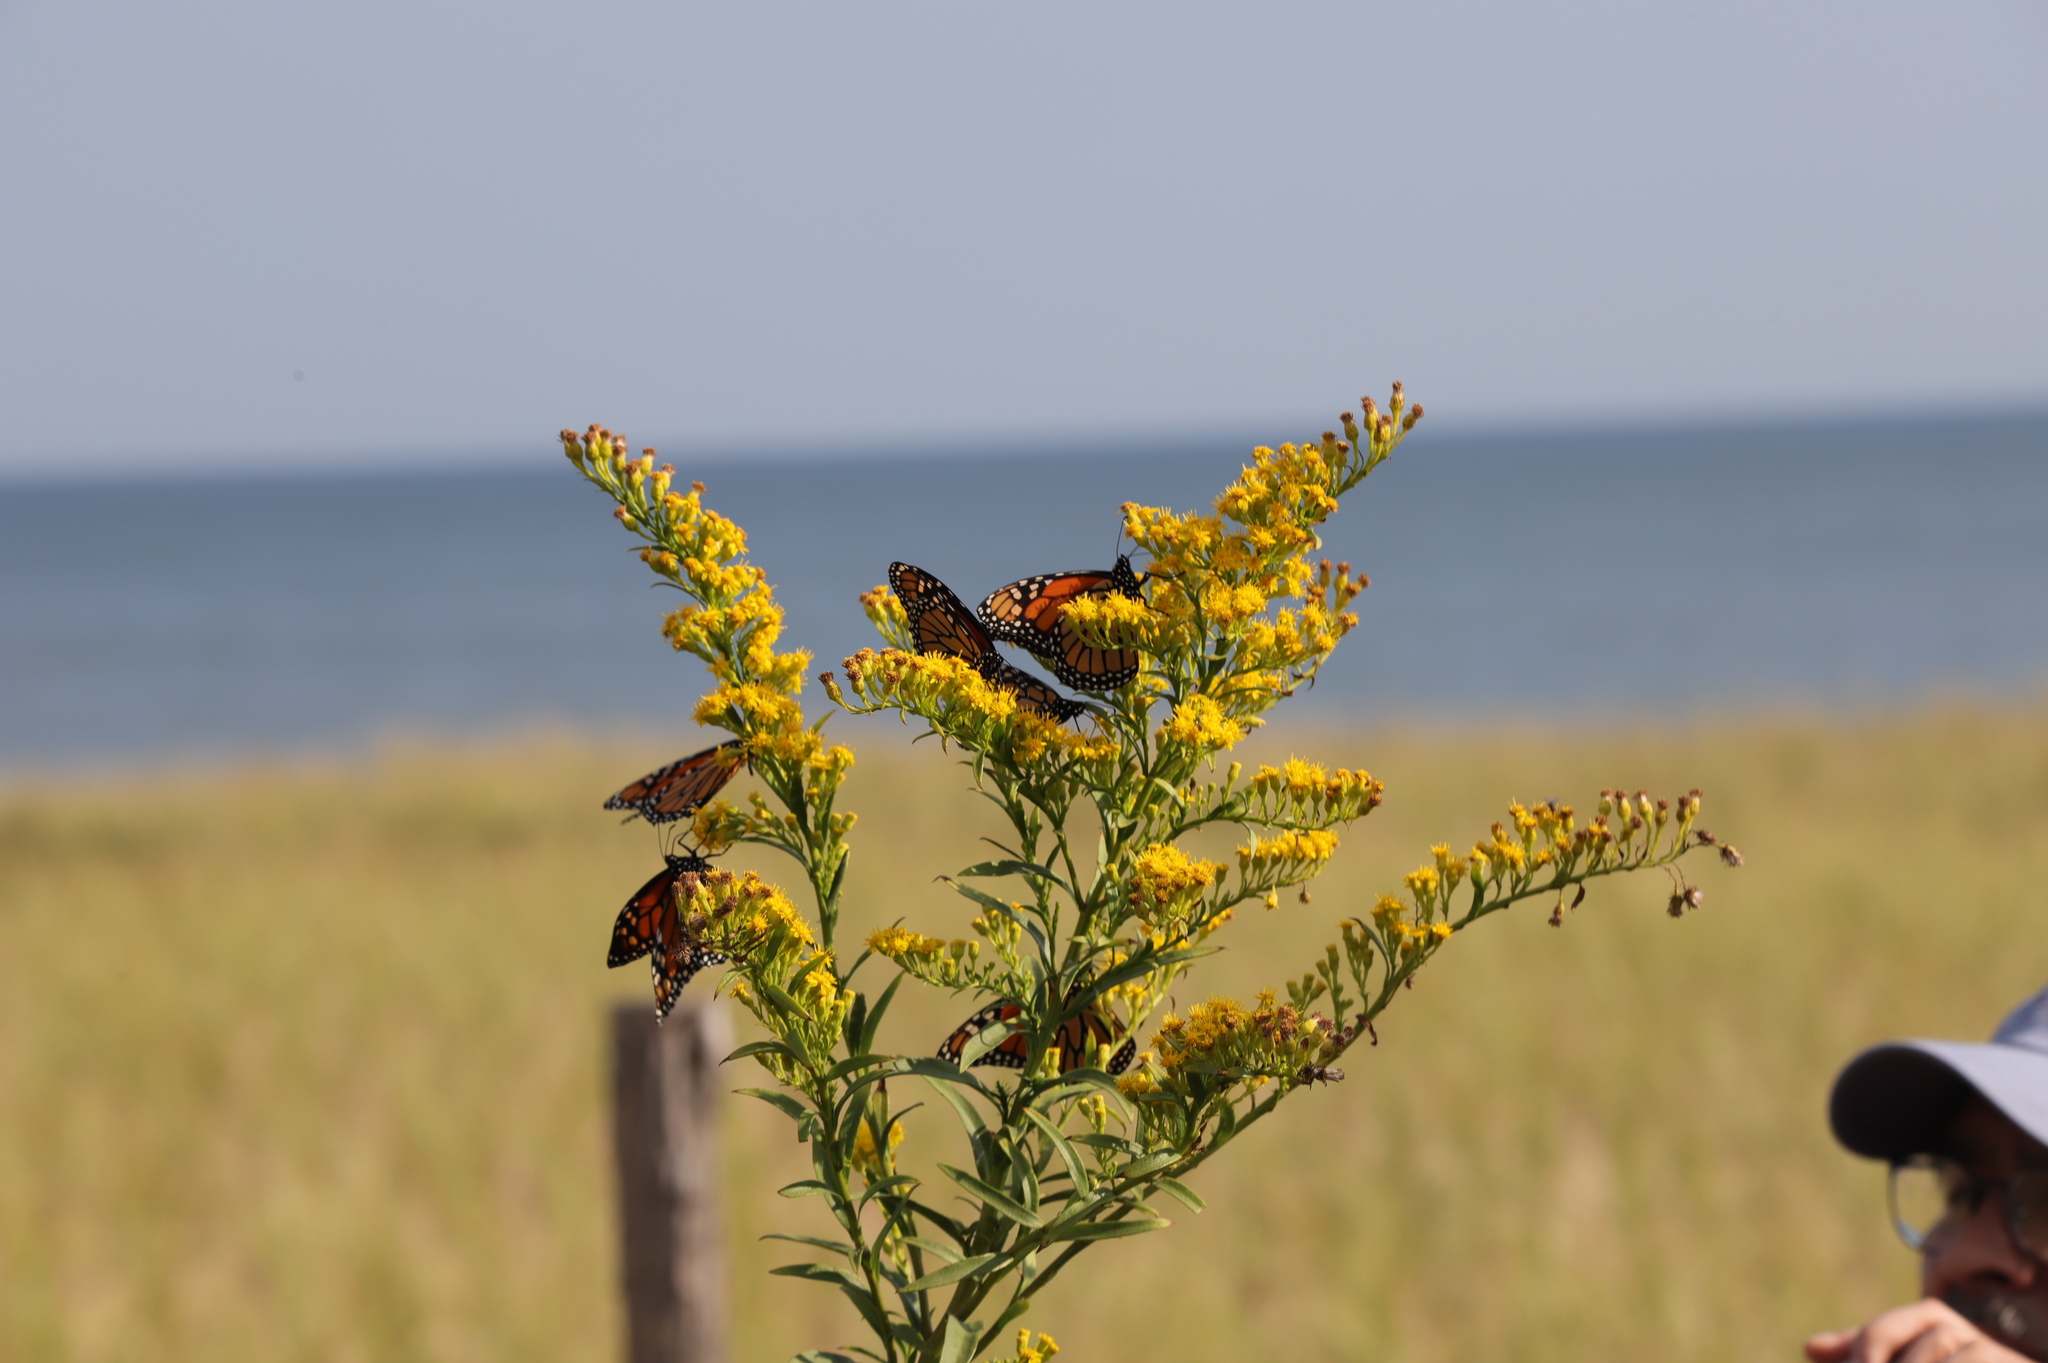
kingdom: Animalia
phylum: Arthropoda
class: Insecta
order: Lepidoptera
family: Nymphalidae
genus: Danaus
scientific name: Danaus plexippus
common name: Monarch
